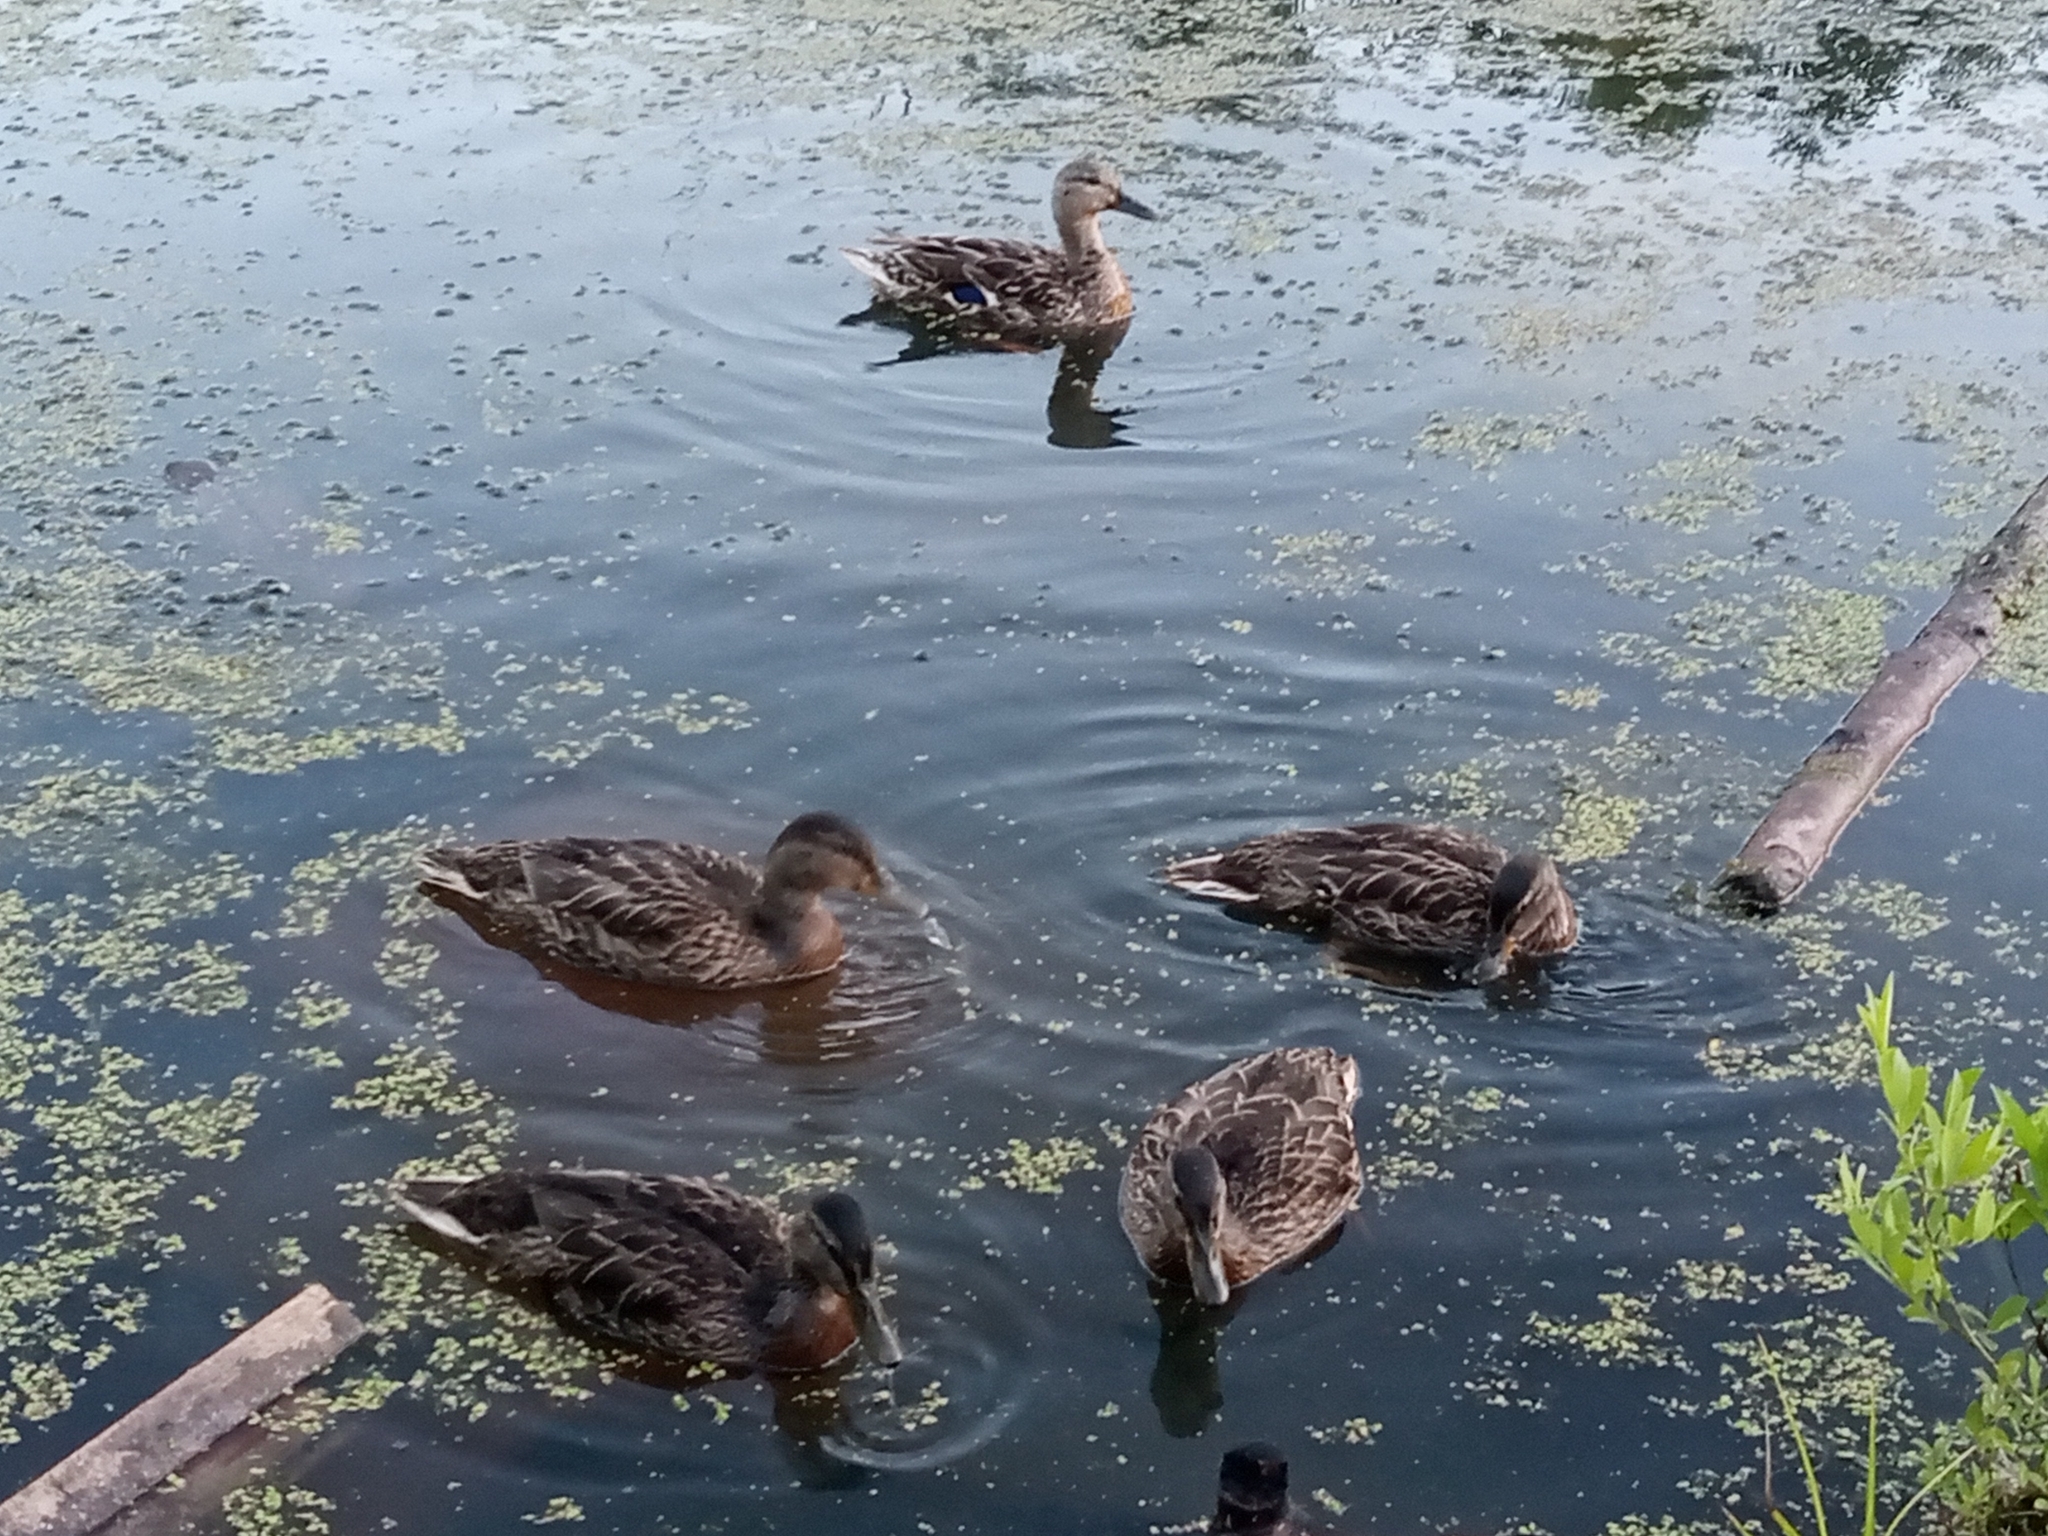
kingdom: Animalia
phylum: Chordata
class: Aves
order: Anseriformes
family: Anatidae
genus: Anas
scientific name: Anas platyrhynchos
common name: Mallard
